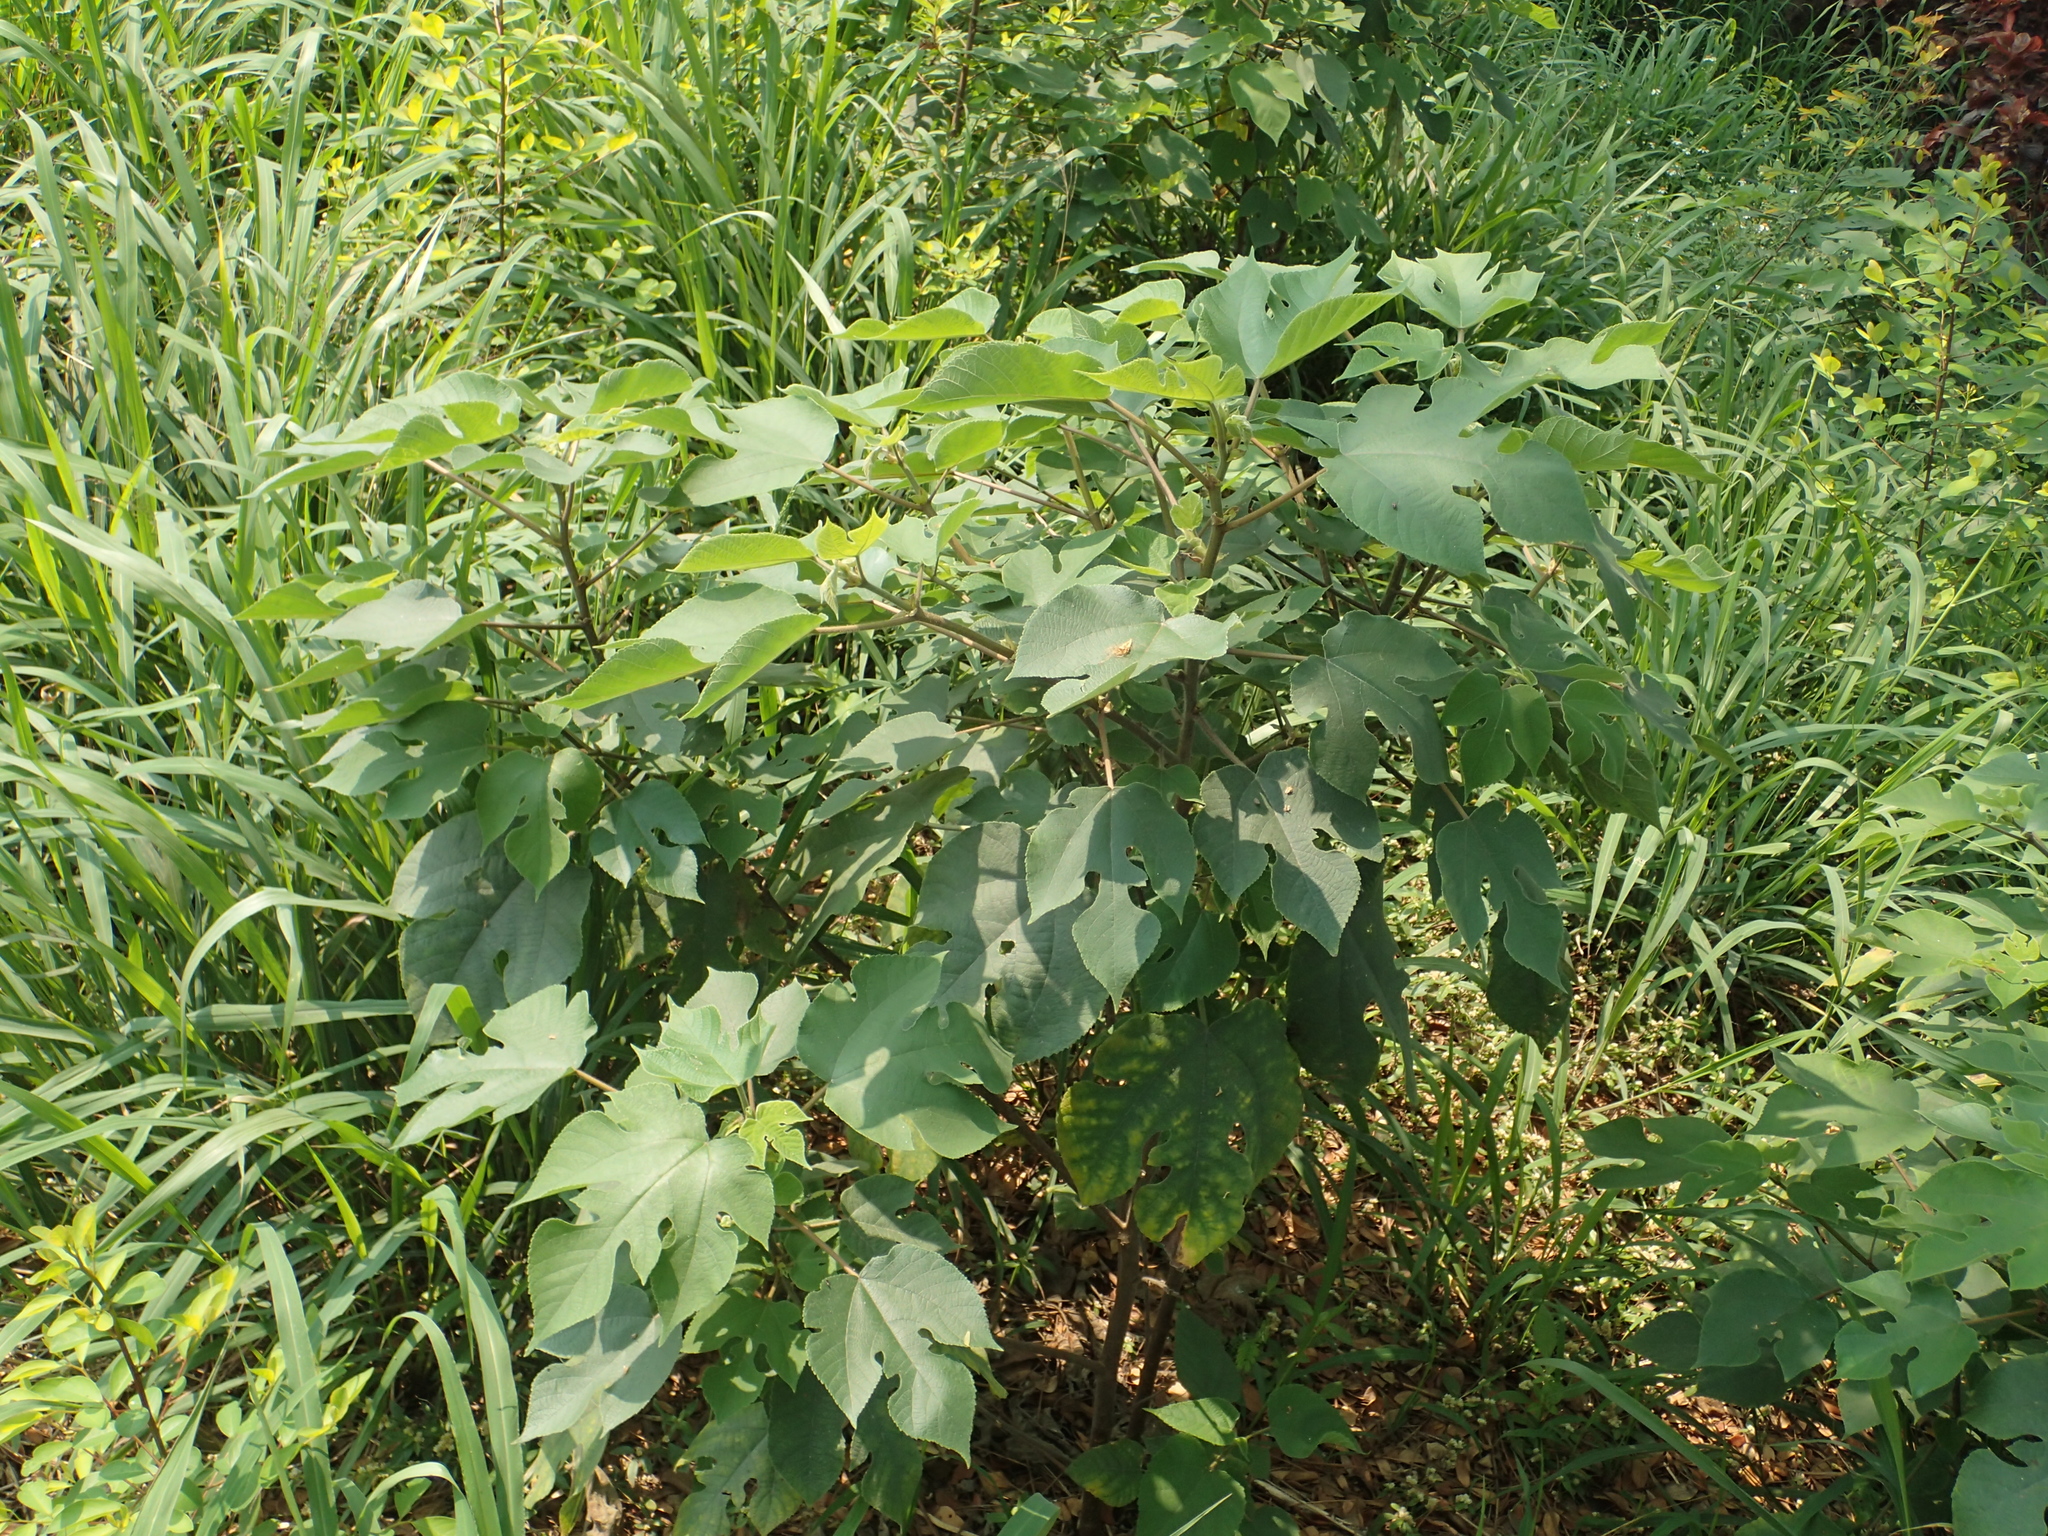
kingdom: Plantae
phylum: Tracheophyta
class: Magnoliopsida
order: Rosales
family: Moraceae
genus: Broussonetia
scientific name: Broussonetia papyrifera
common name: Paper mulberry
